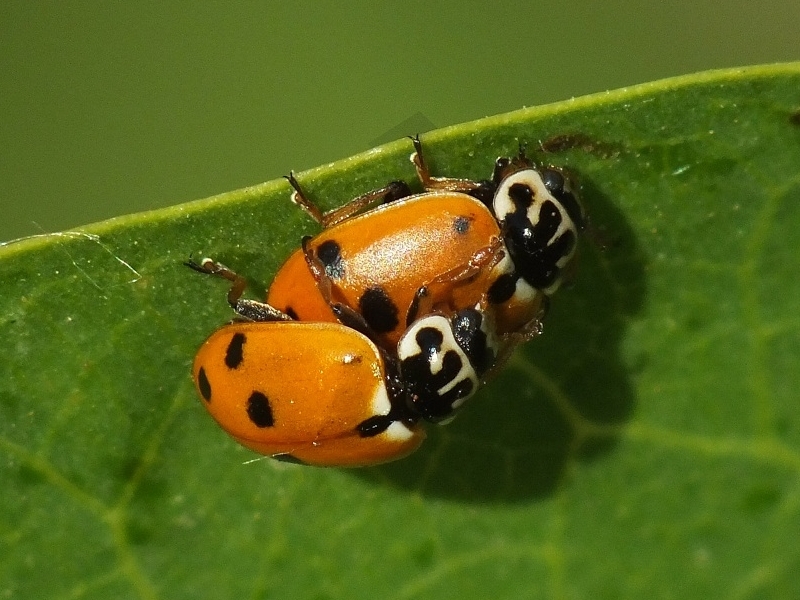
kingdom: Animalia
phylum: Arthropoda
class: Insecta
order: Coleoptera
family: Coccinellidae
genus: Hippodamia
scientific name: Hippodamia variegata
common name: Ladybird beetle
